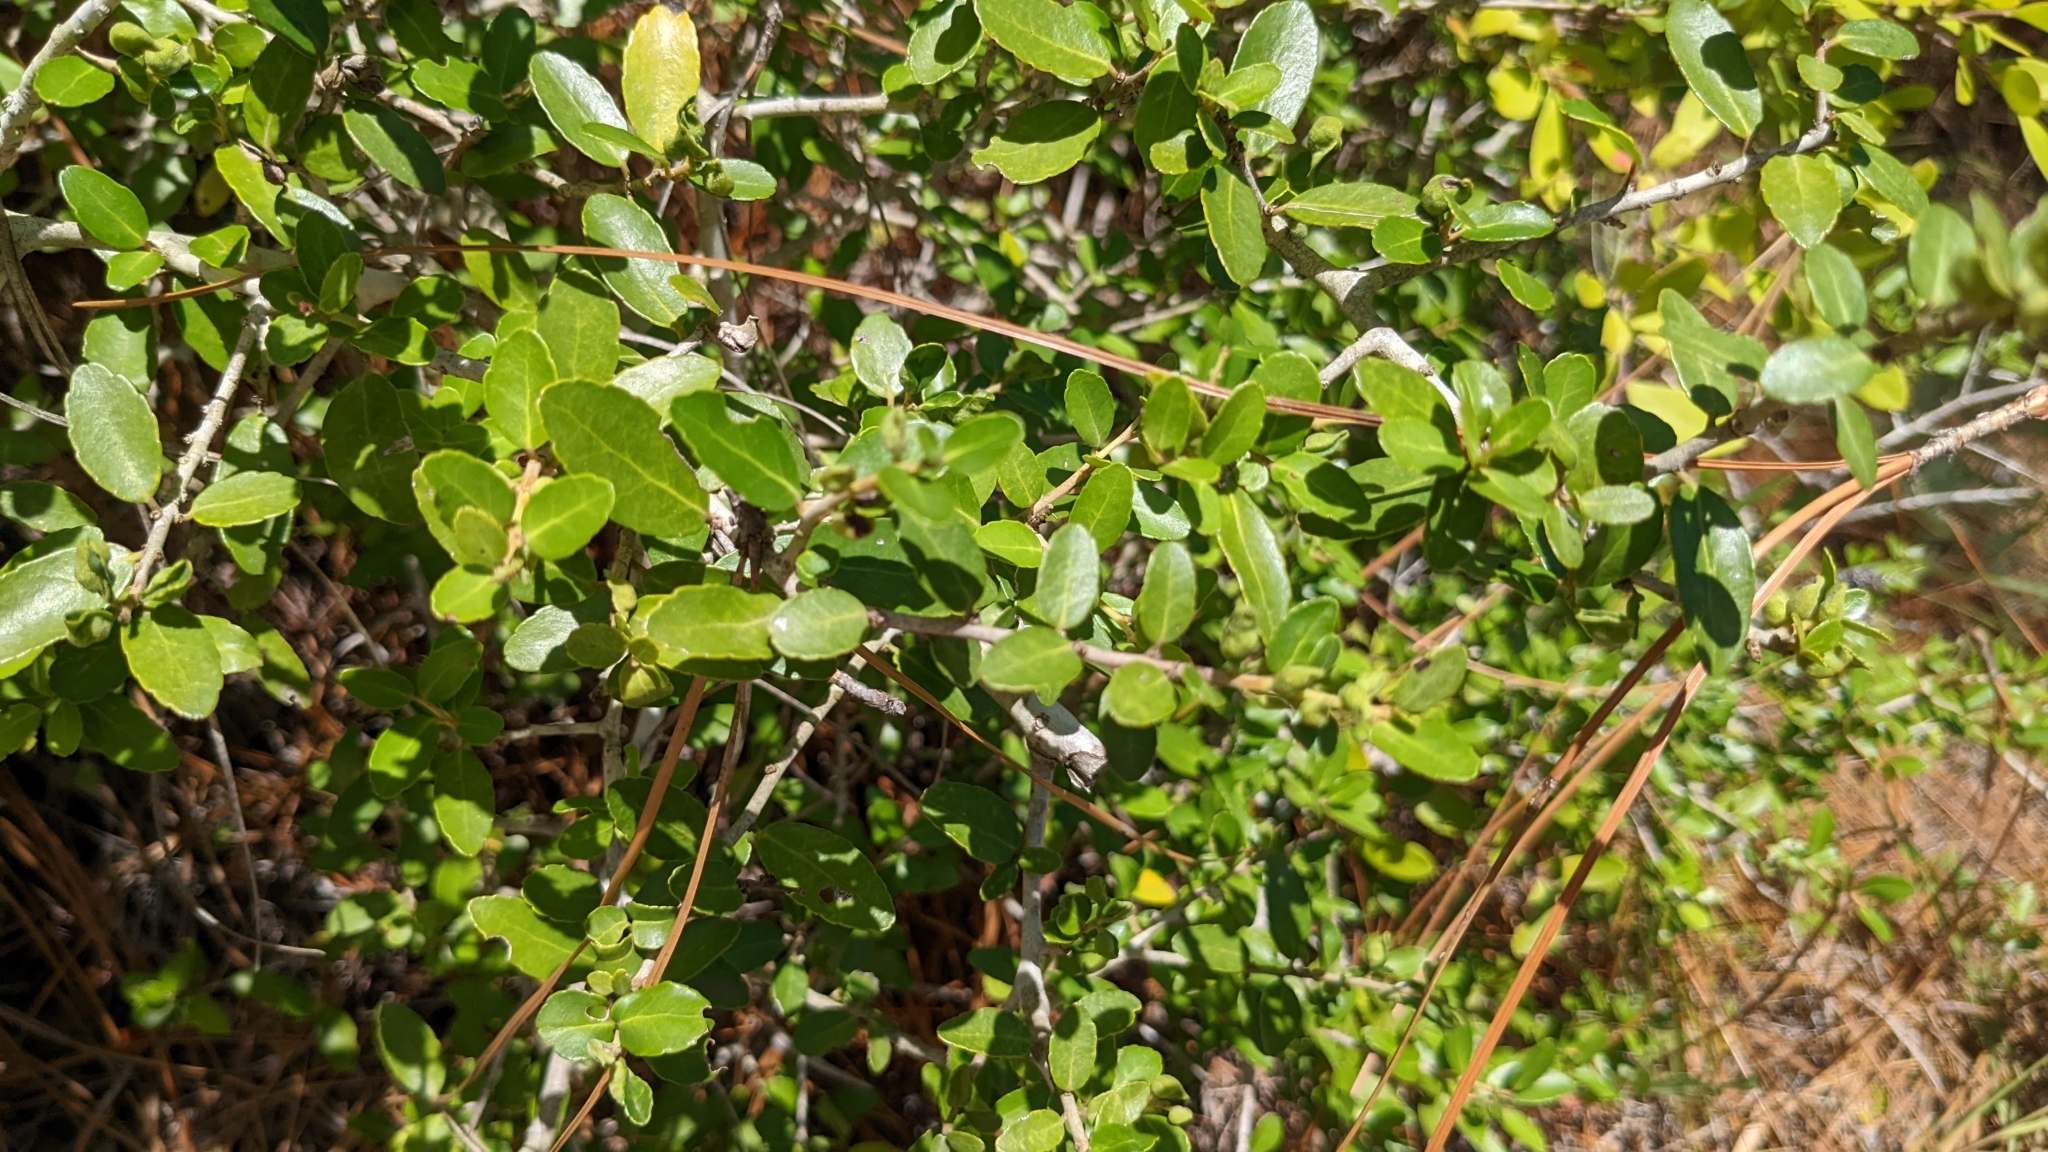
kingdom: Plantae
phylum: Tracheophyta
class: Magnoliopsida
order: Aquifoliales
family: Aquifoliaceae
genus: Ilex
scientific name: Ilex vomitoria
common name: Yaupon holly
